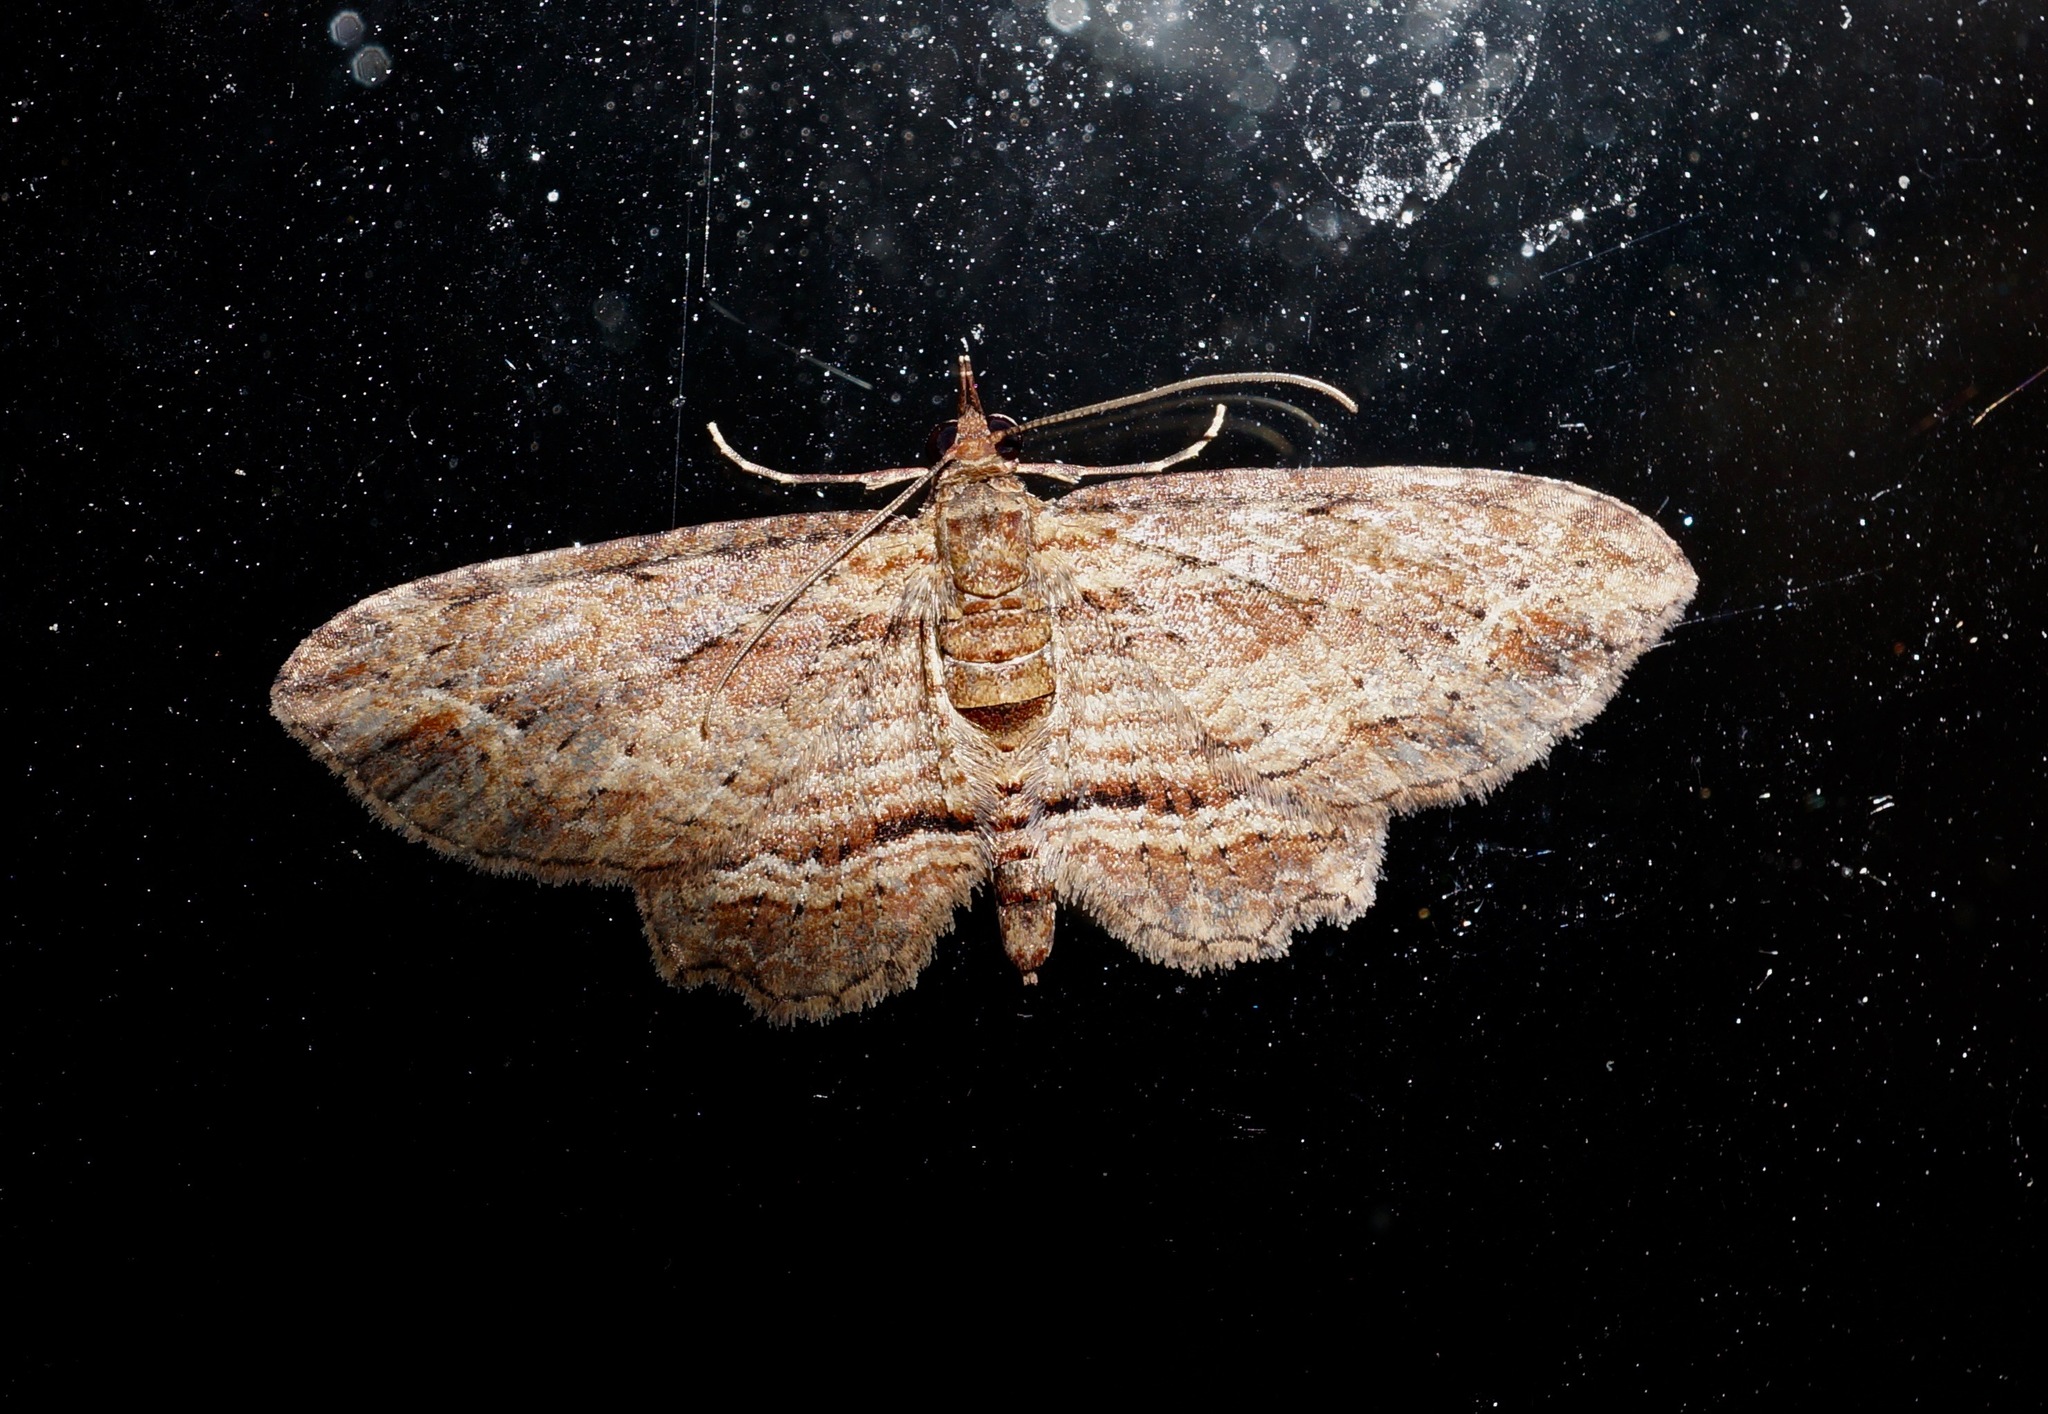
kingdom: Animalia
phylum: Arthropoda
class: Insecta
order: Lepidoptera
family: Geometridae
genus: Chloroclystis
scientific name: Chloroclystis filata
